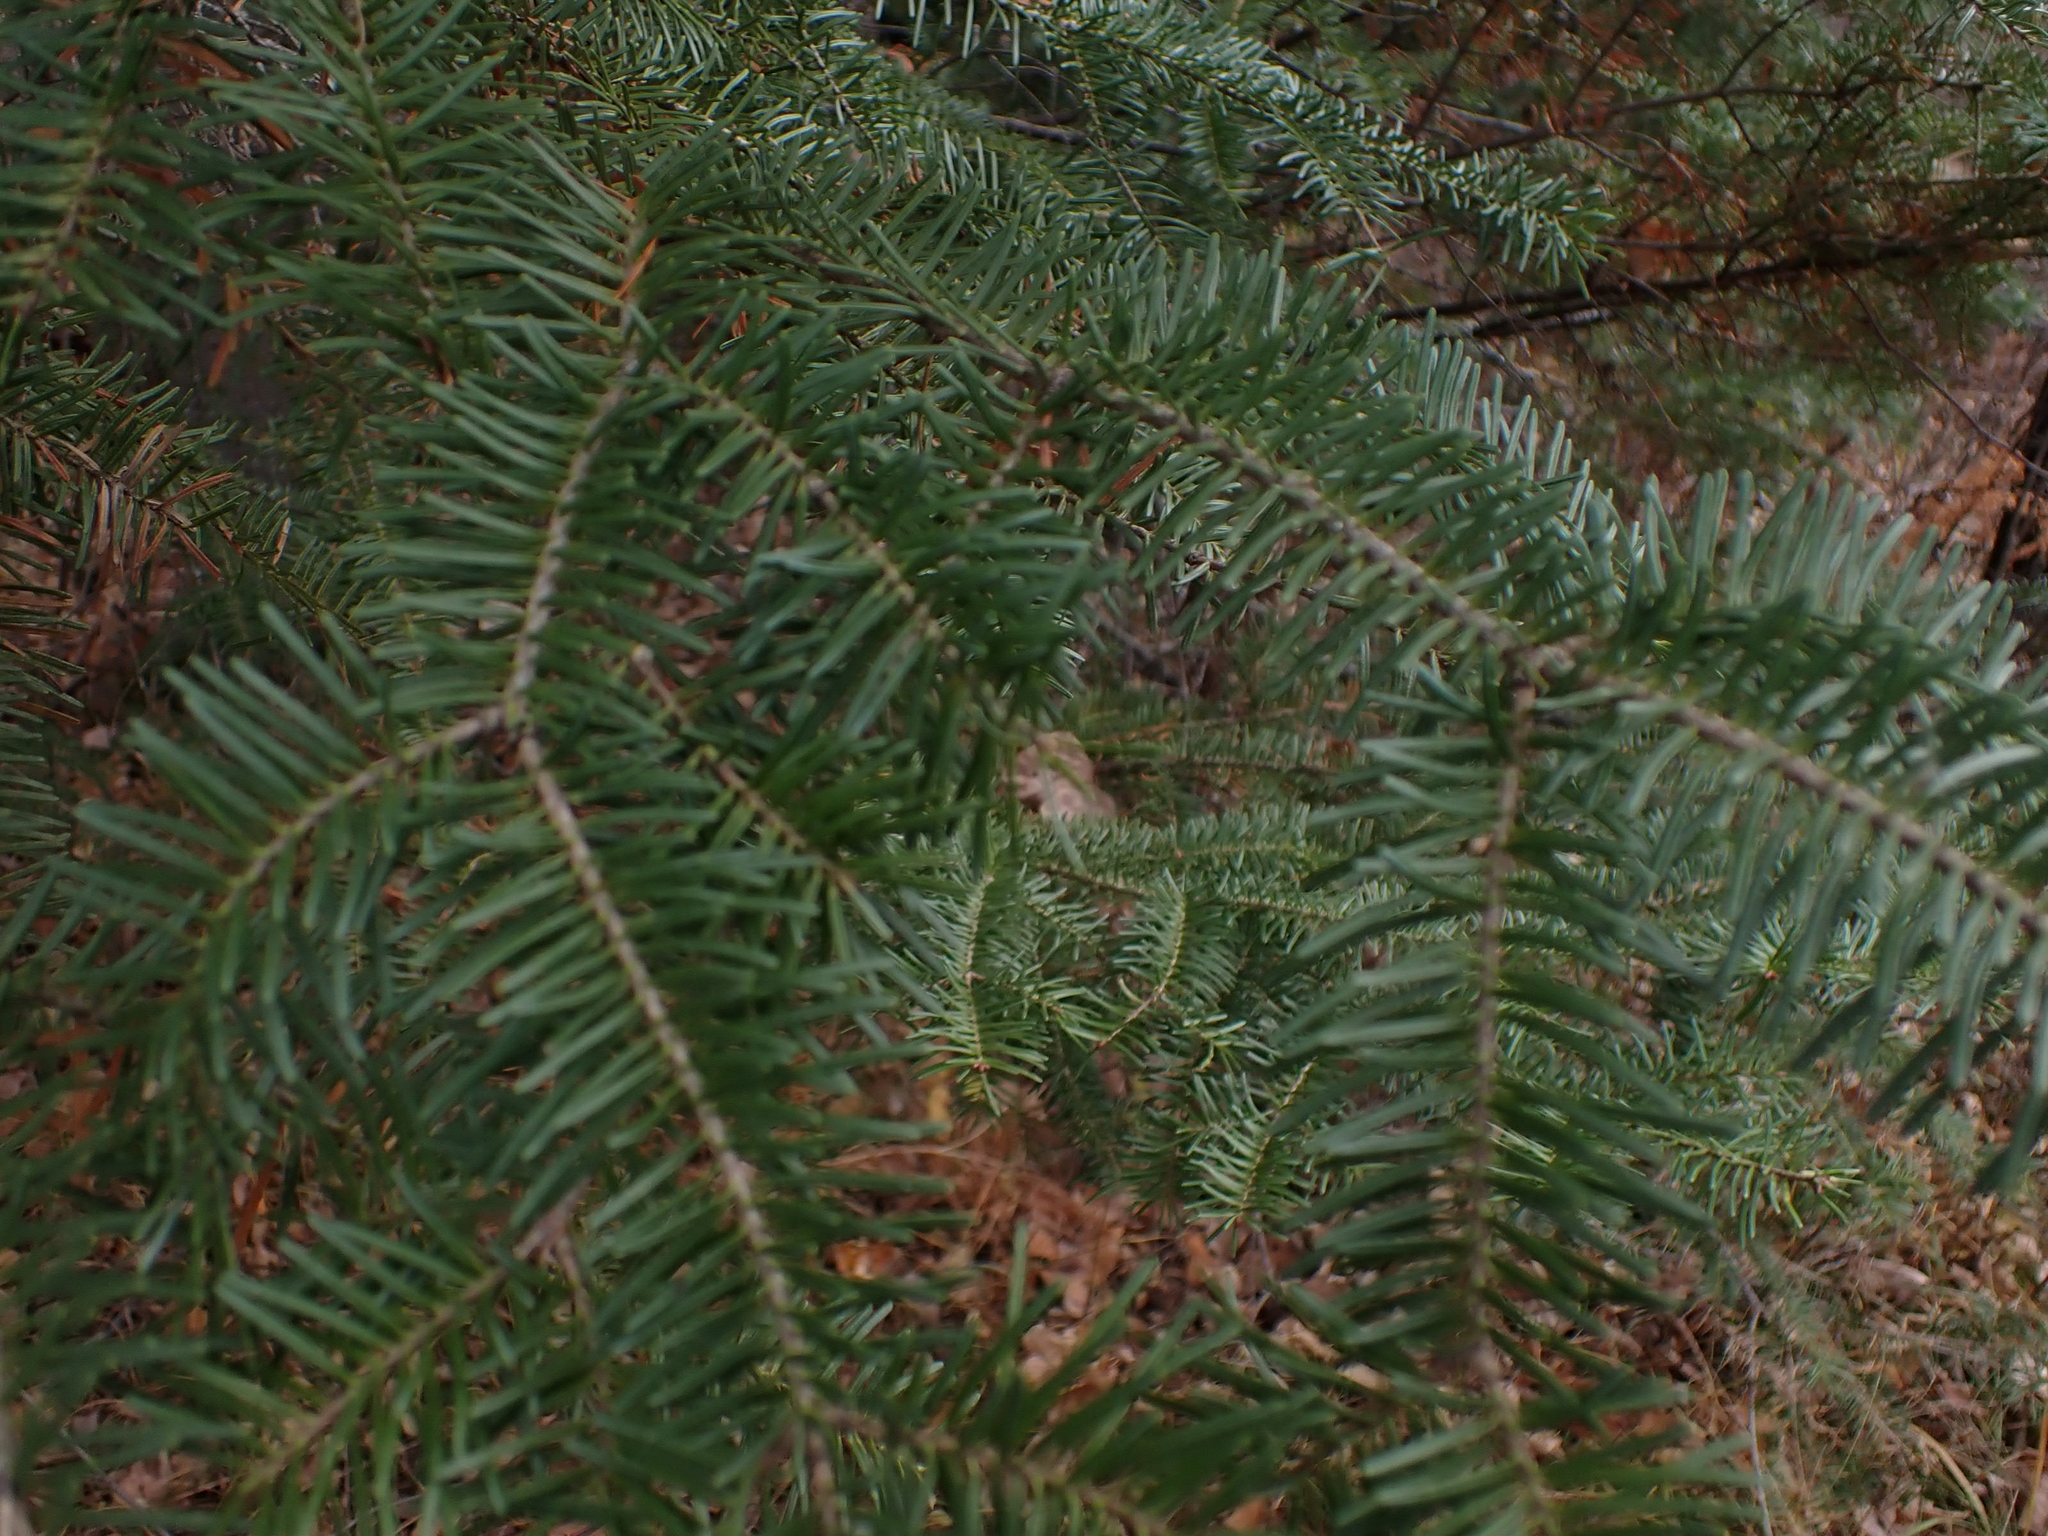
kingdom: Plantae
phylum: Tracheophyta
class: Pinopsida
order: Pinales
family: Pinaceae
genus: Abies
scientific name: Abies balsamea
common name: Balsam fir
